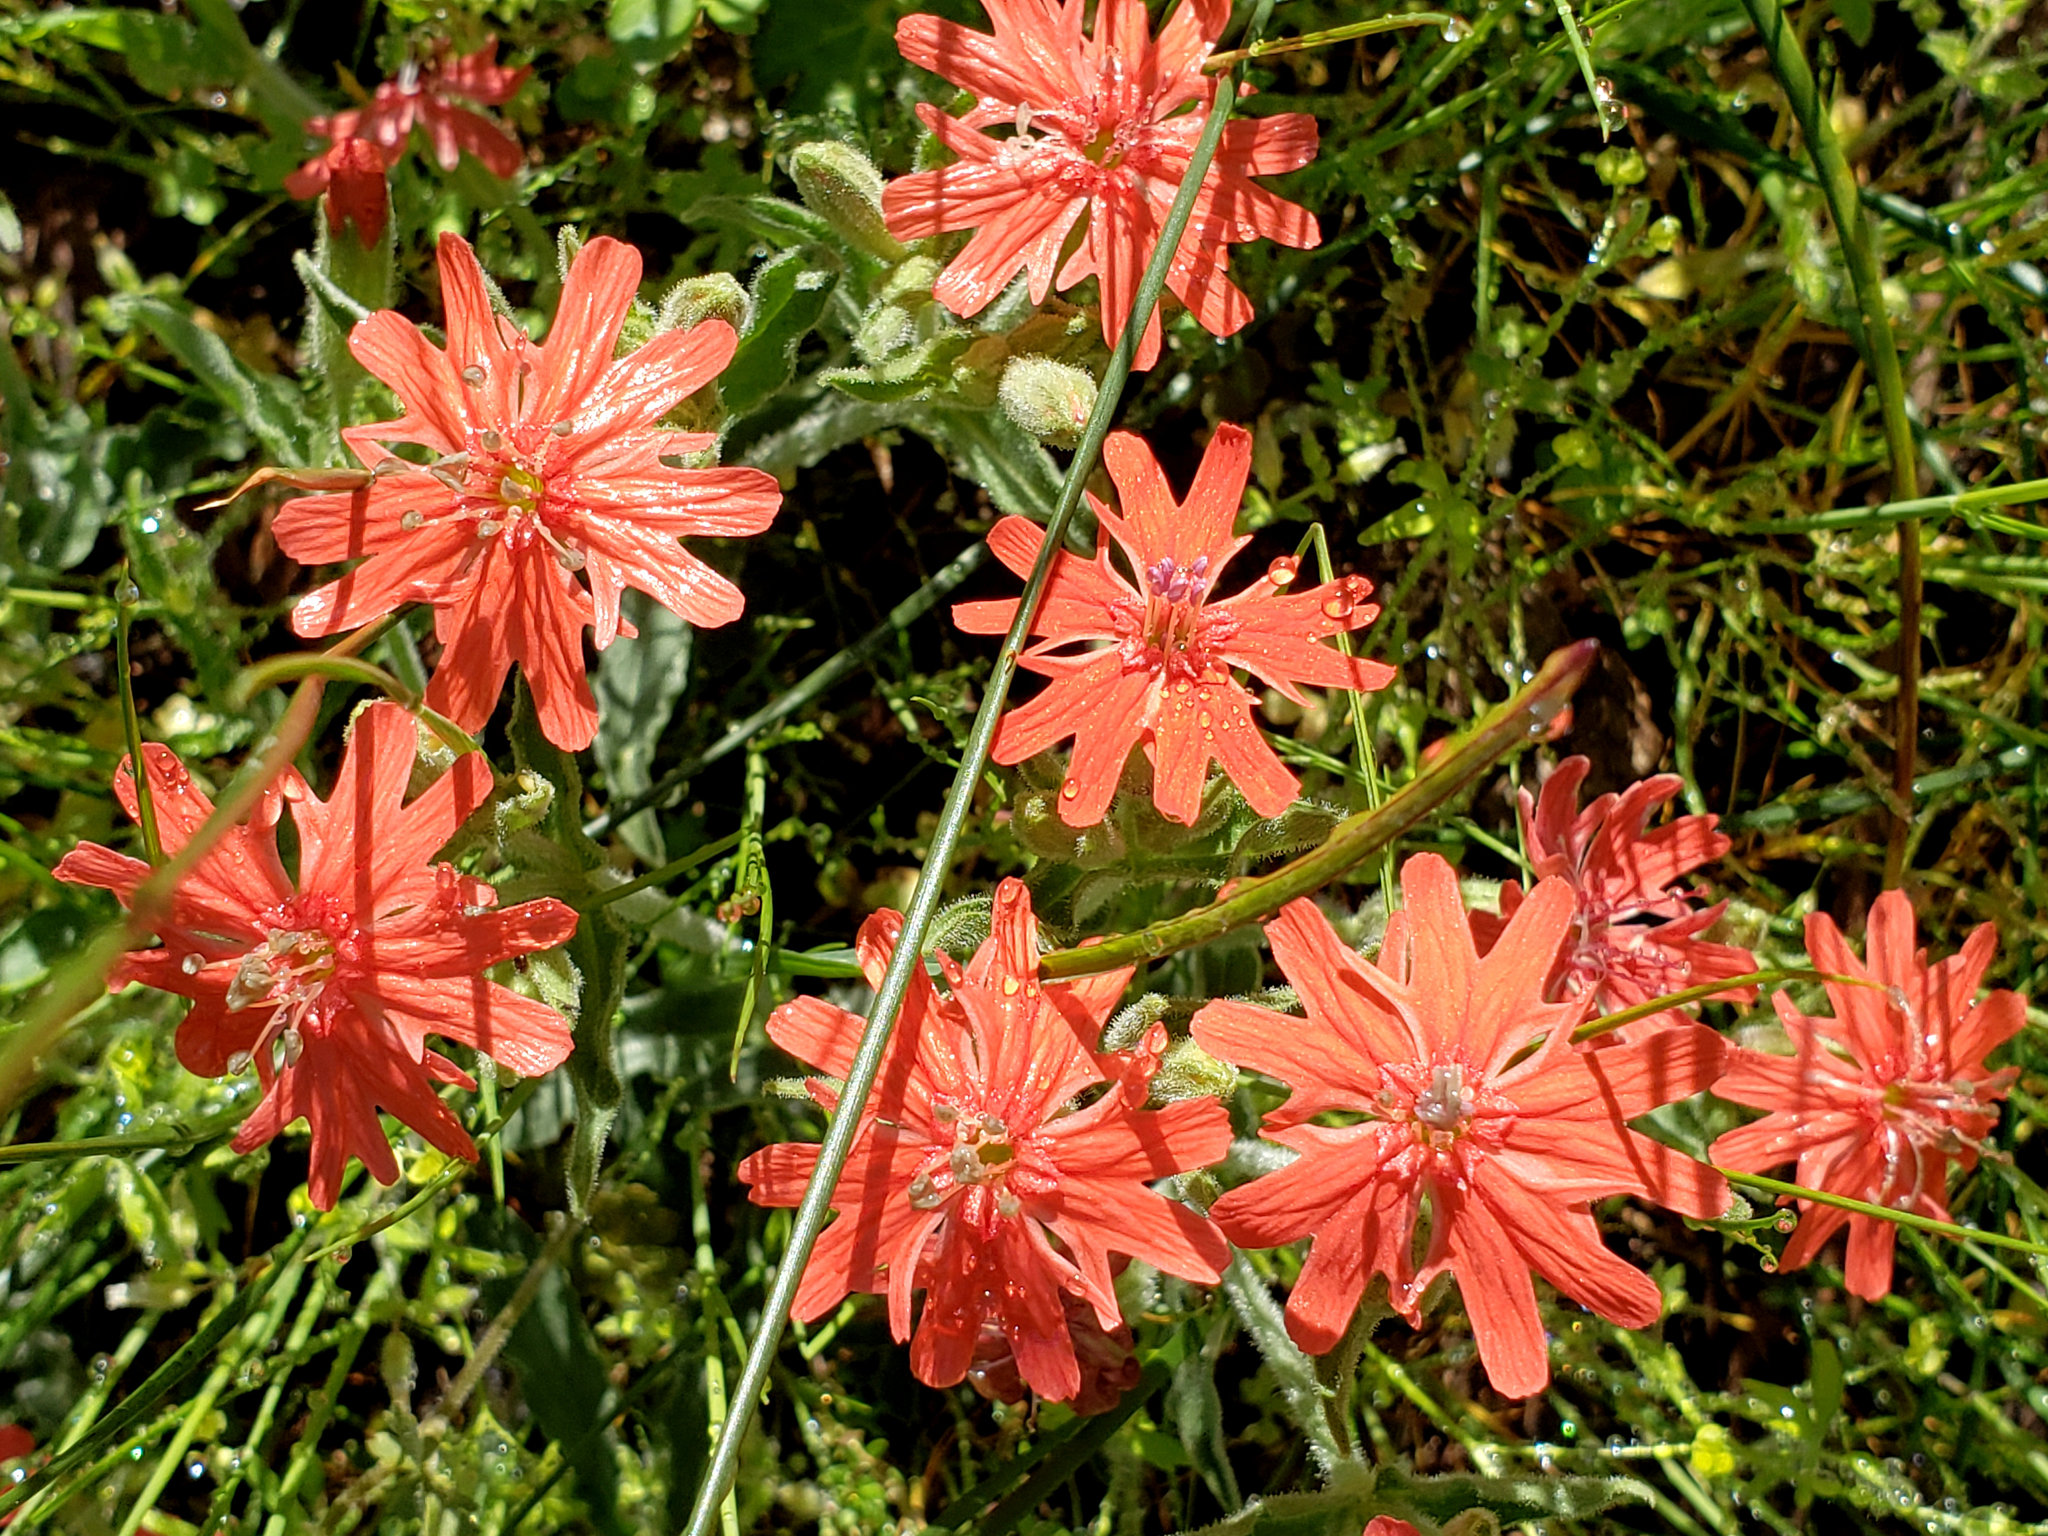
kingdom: Plantae
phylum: Tracheophyta
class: Magnoliopsida
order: Caryophyllales
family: Caryophyllaceae
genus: Silene
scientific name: Silene laciniata
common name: Indian-pink
